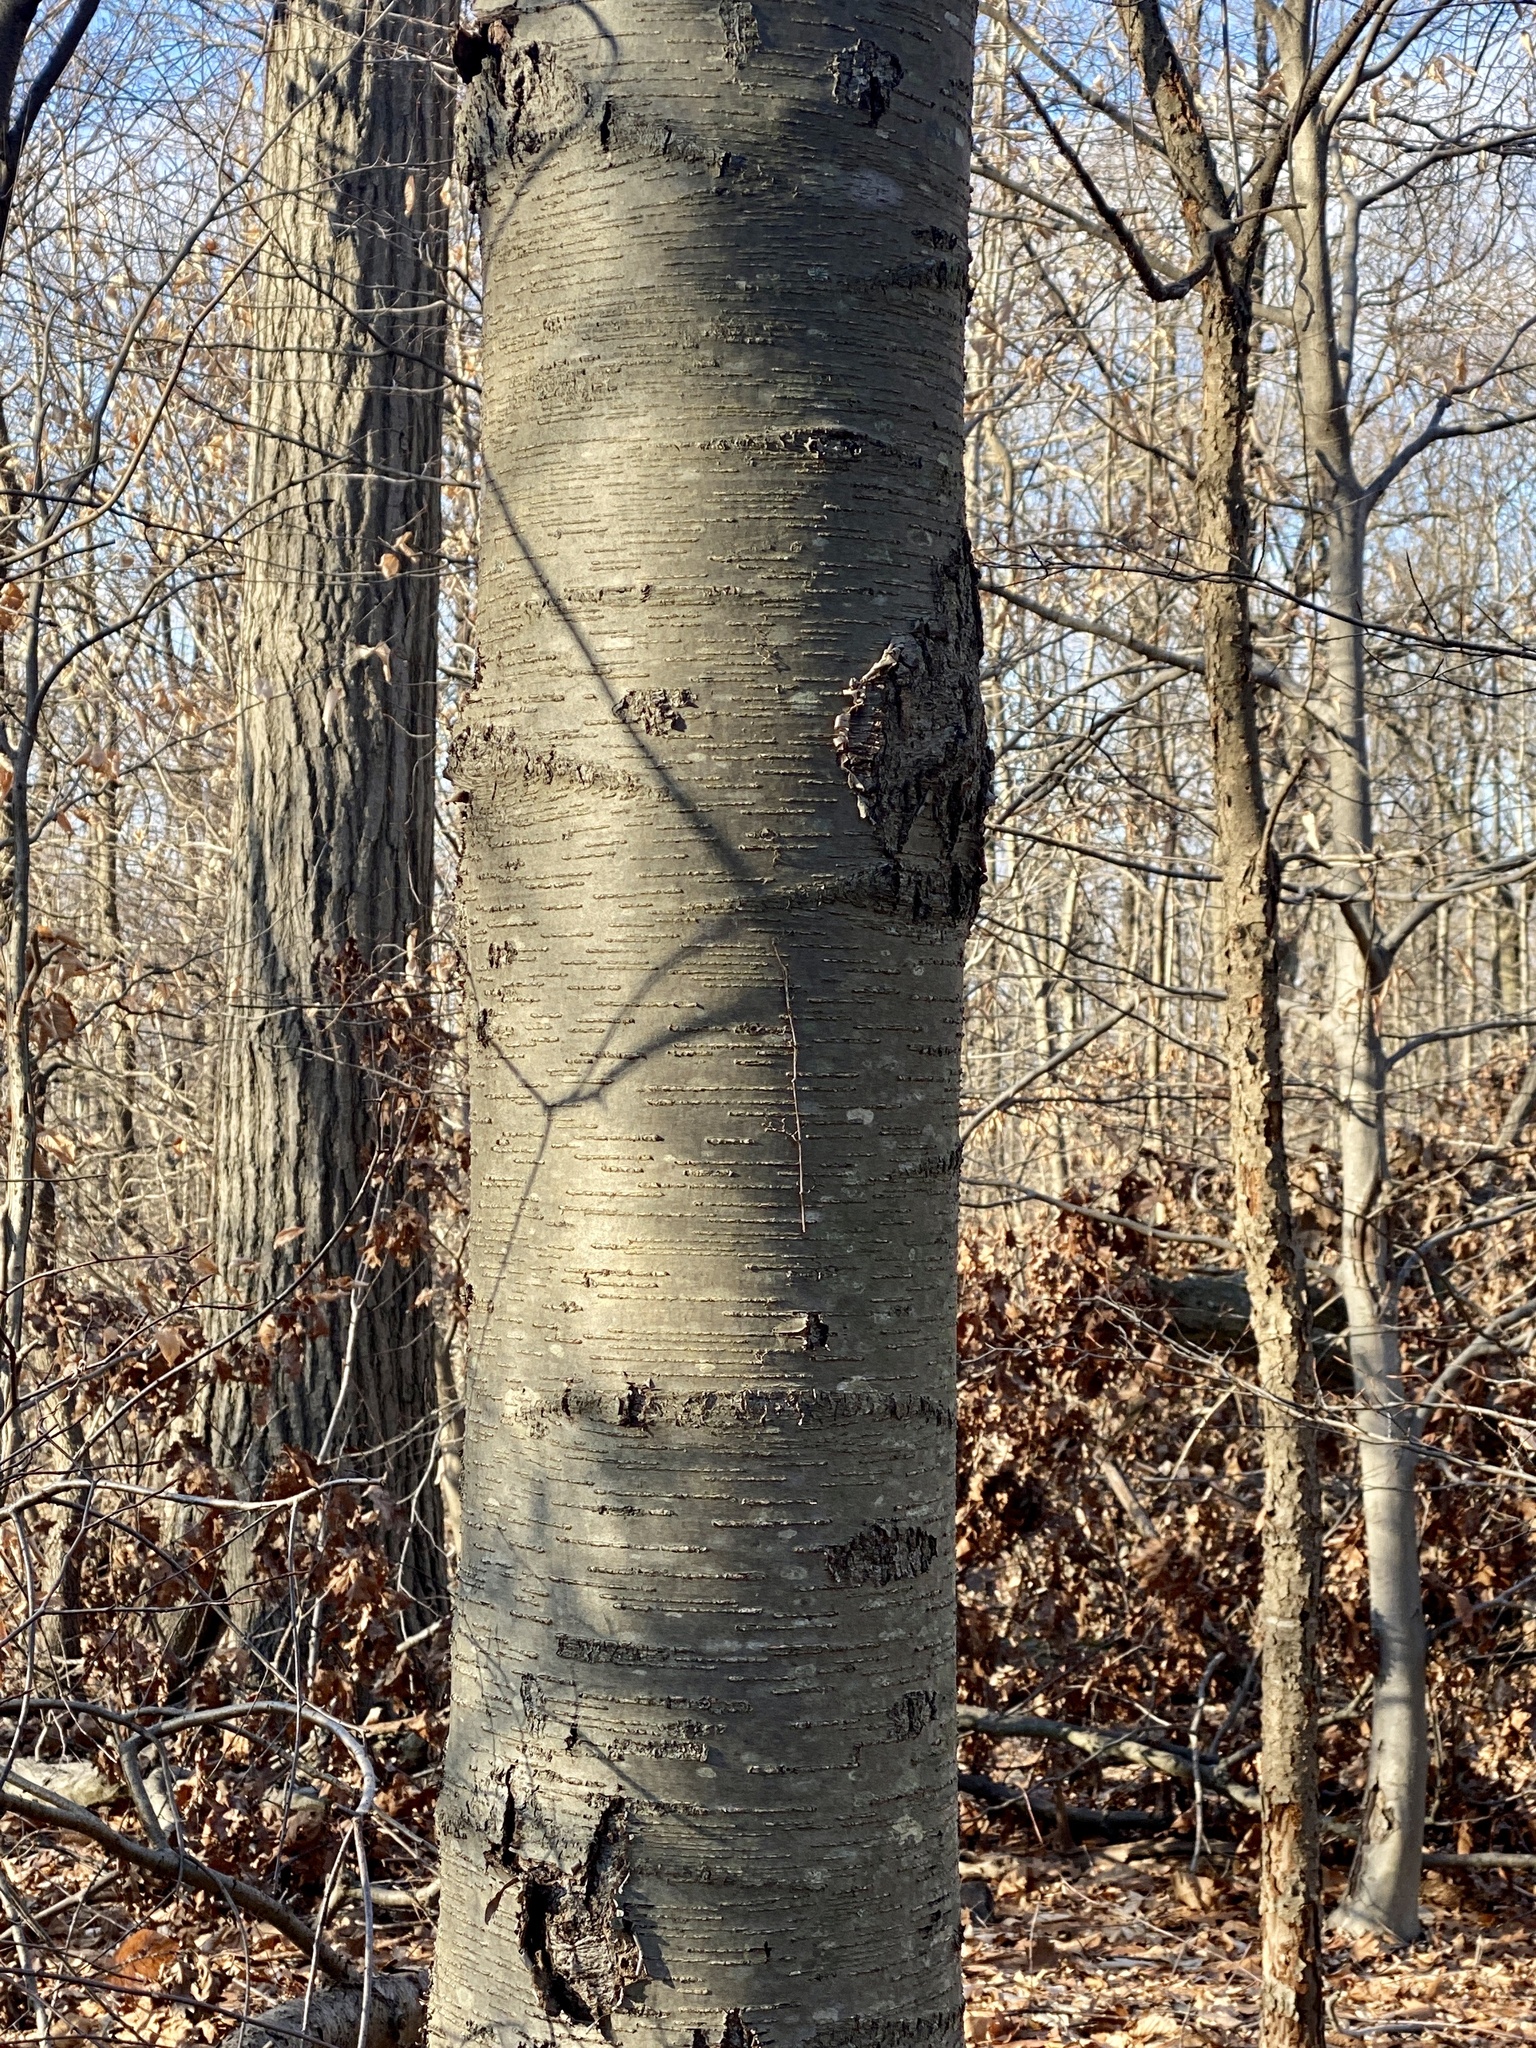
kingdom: Plantae
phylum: Tracheophyta
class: Magnoliopsida
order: Fagales
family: Betulaceae
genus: Betula
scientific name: Betula lenta
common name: Black birch
